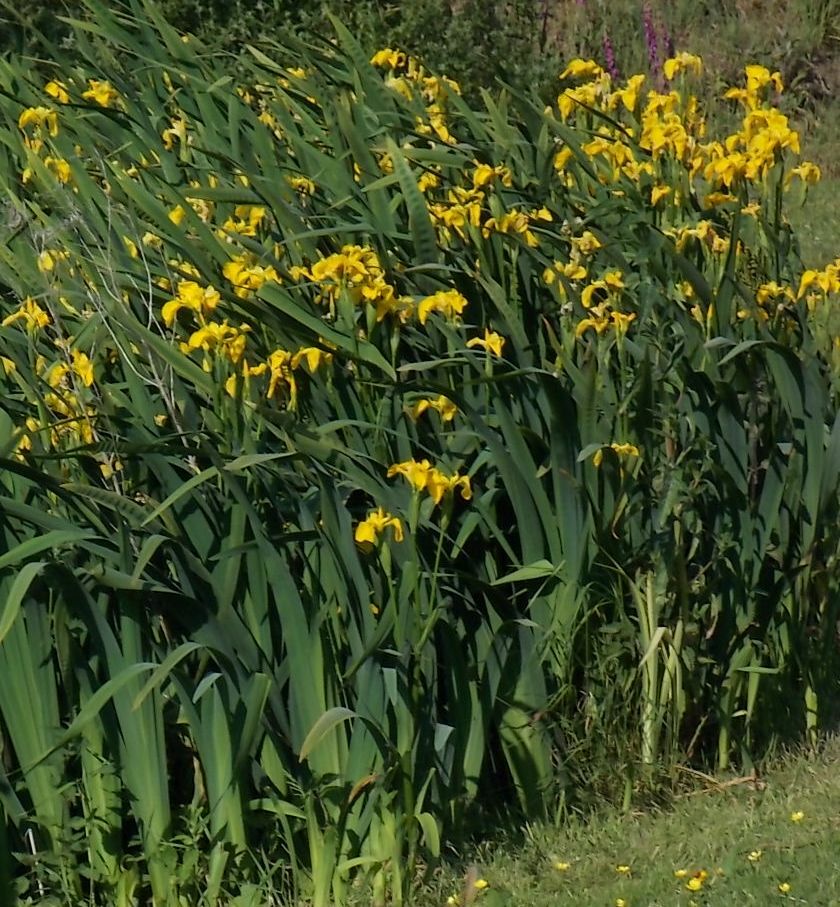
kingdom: Plantae
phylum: Tracheophyta
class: Liliopsida
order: Asparagales
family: Iridaceae
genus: Iris
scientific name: Iris pseudacorus
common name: Yellow flag
